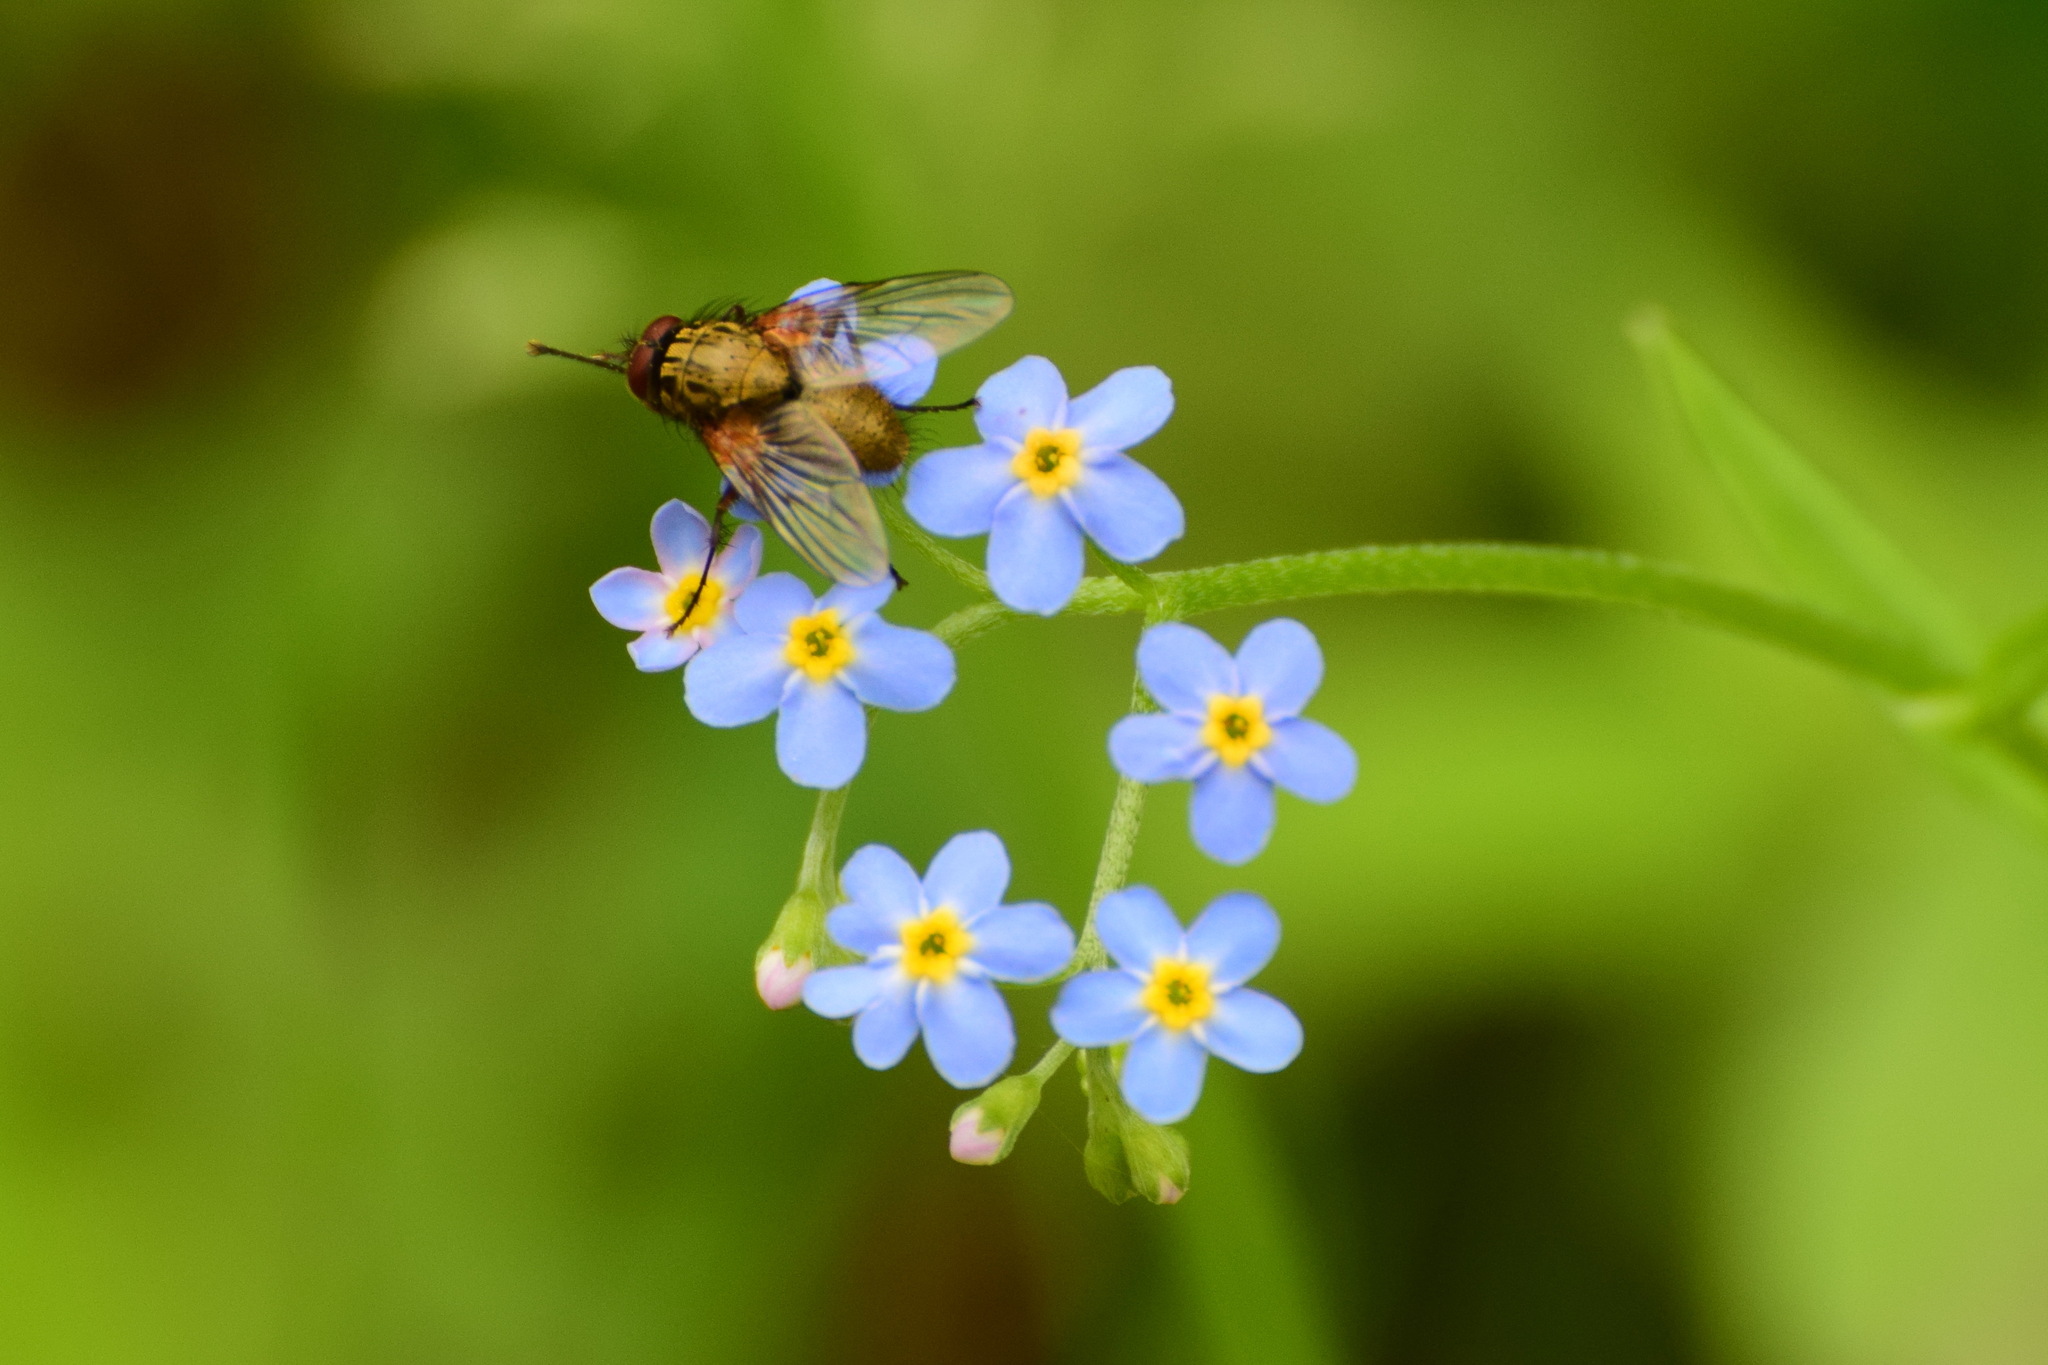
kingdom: Plantae
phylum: Tracheophyta
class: Magnoliopsida
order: Boraginales
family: Boraginaceae
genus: Myosotis
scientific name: Myosotis scorpioides
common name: Water forget-me-not
